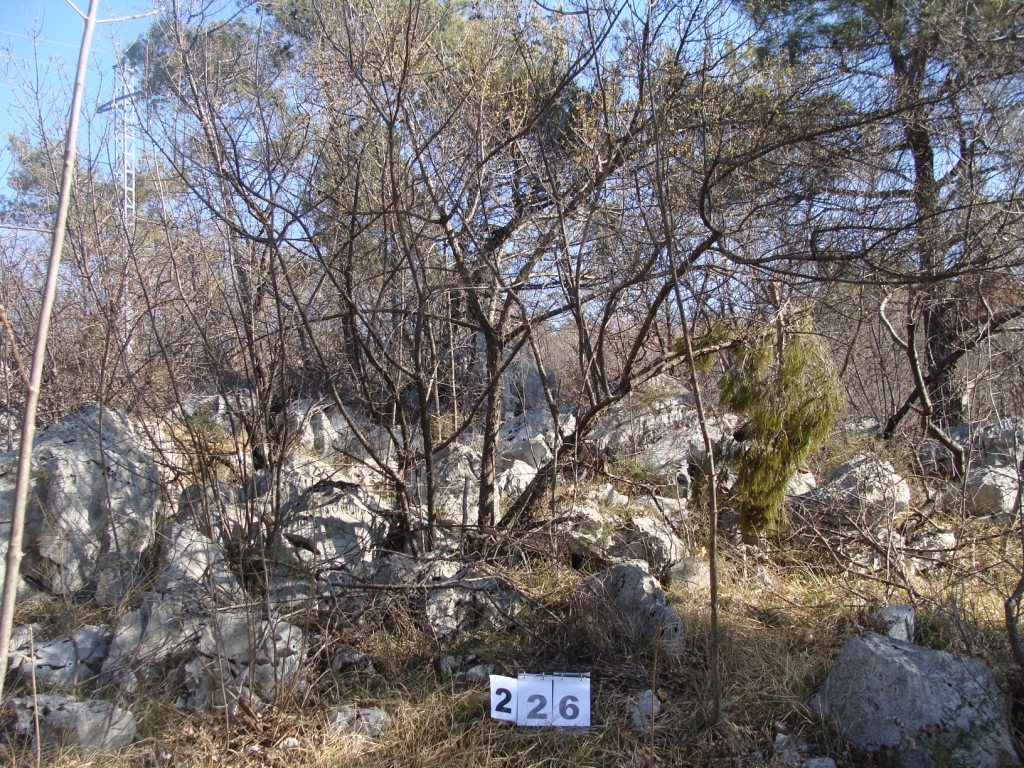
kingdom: Plantae
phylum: Tracheophyta
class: Magnoliopsida
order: Cornales
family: Cornaceae
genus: Cornus
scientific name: Cornus mas
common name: Cornelian-cherry
